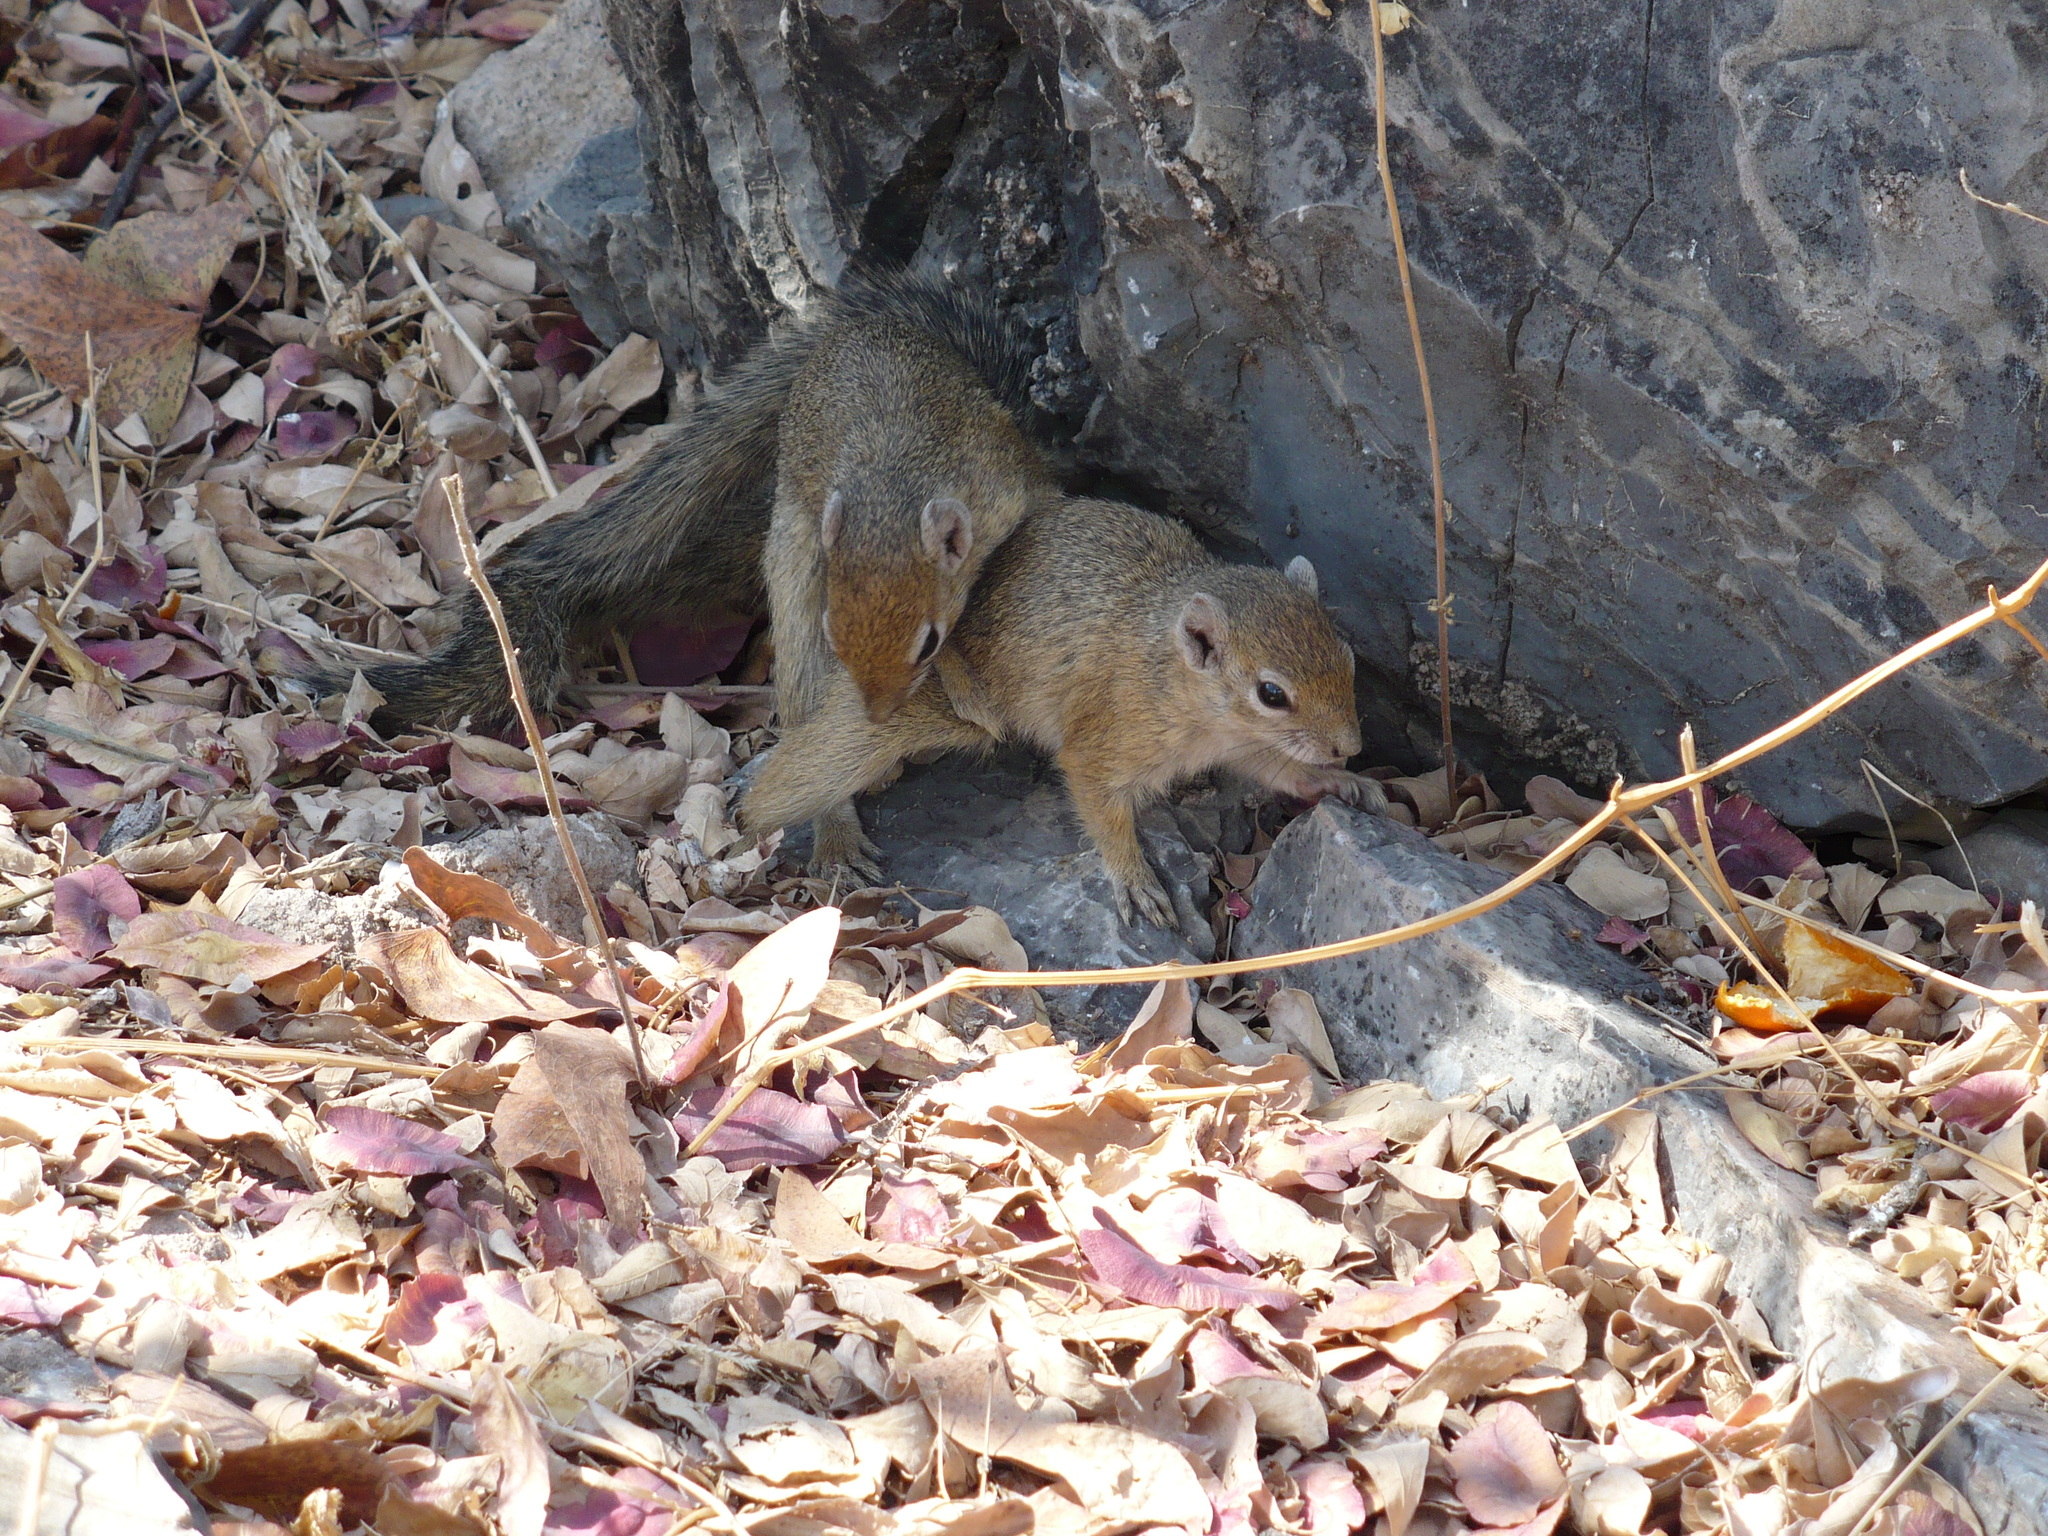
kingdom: Animalia
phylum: Chordata
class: Mammalia
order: Rodentia
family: Sciuridae
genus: Paraxerus
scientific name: Paraxerus cepapi
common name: Smith's bush squirrel
